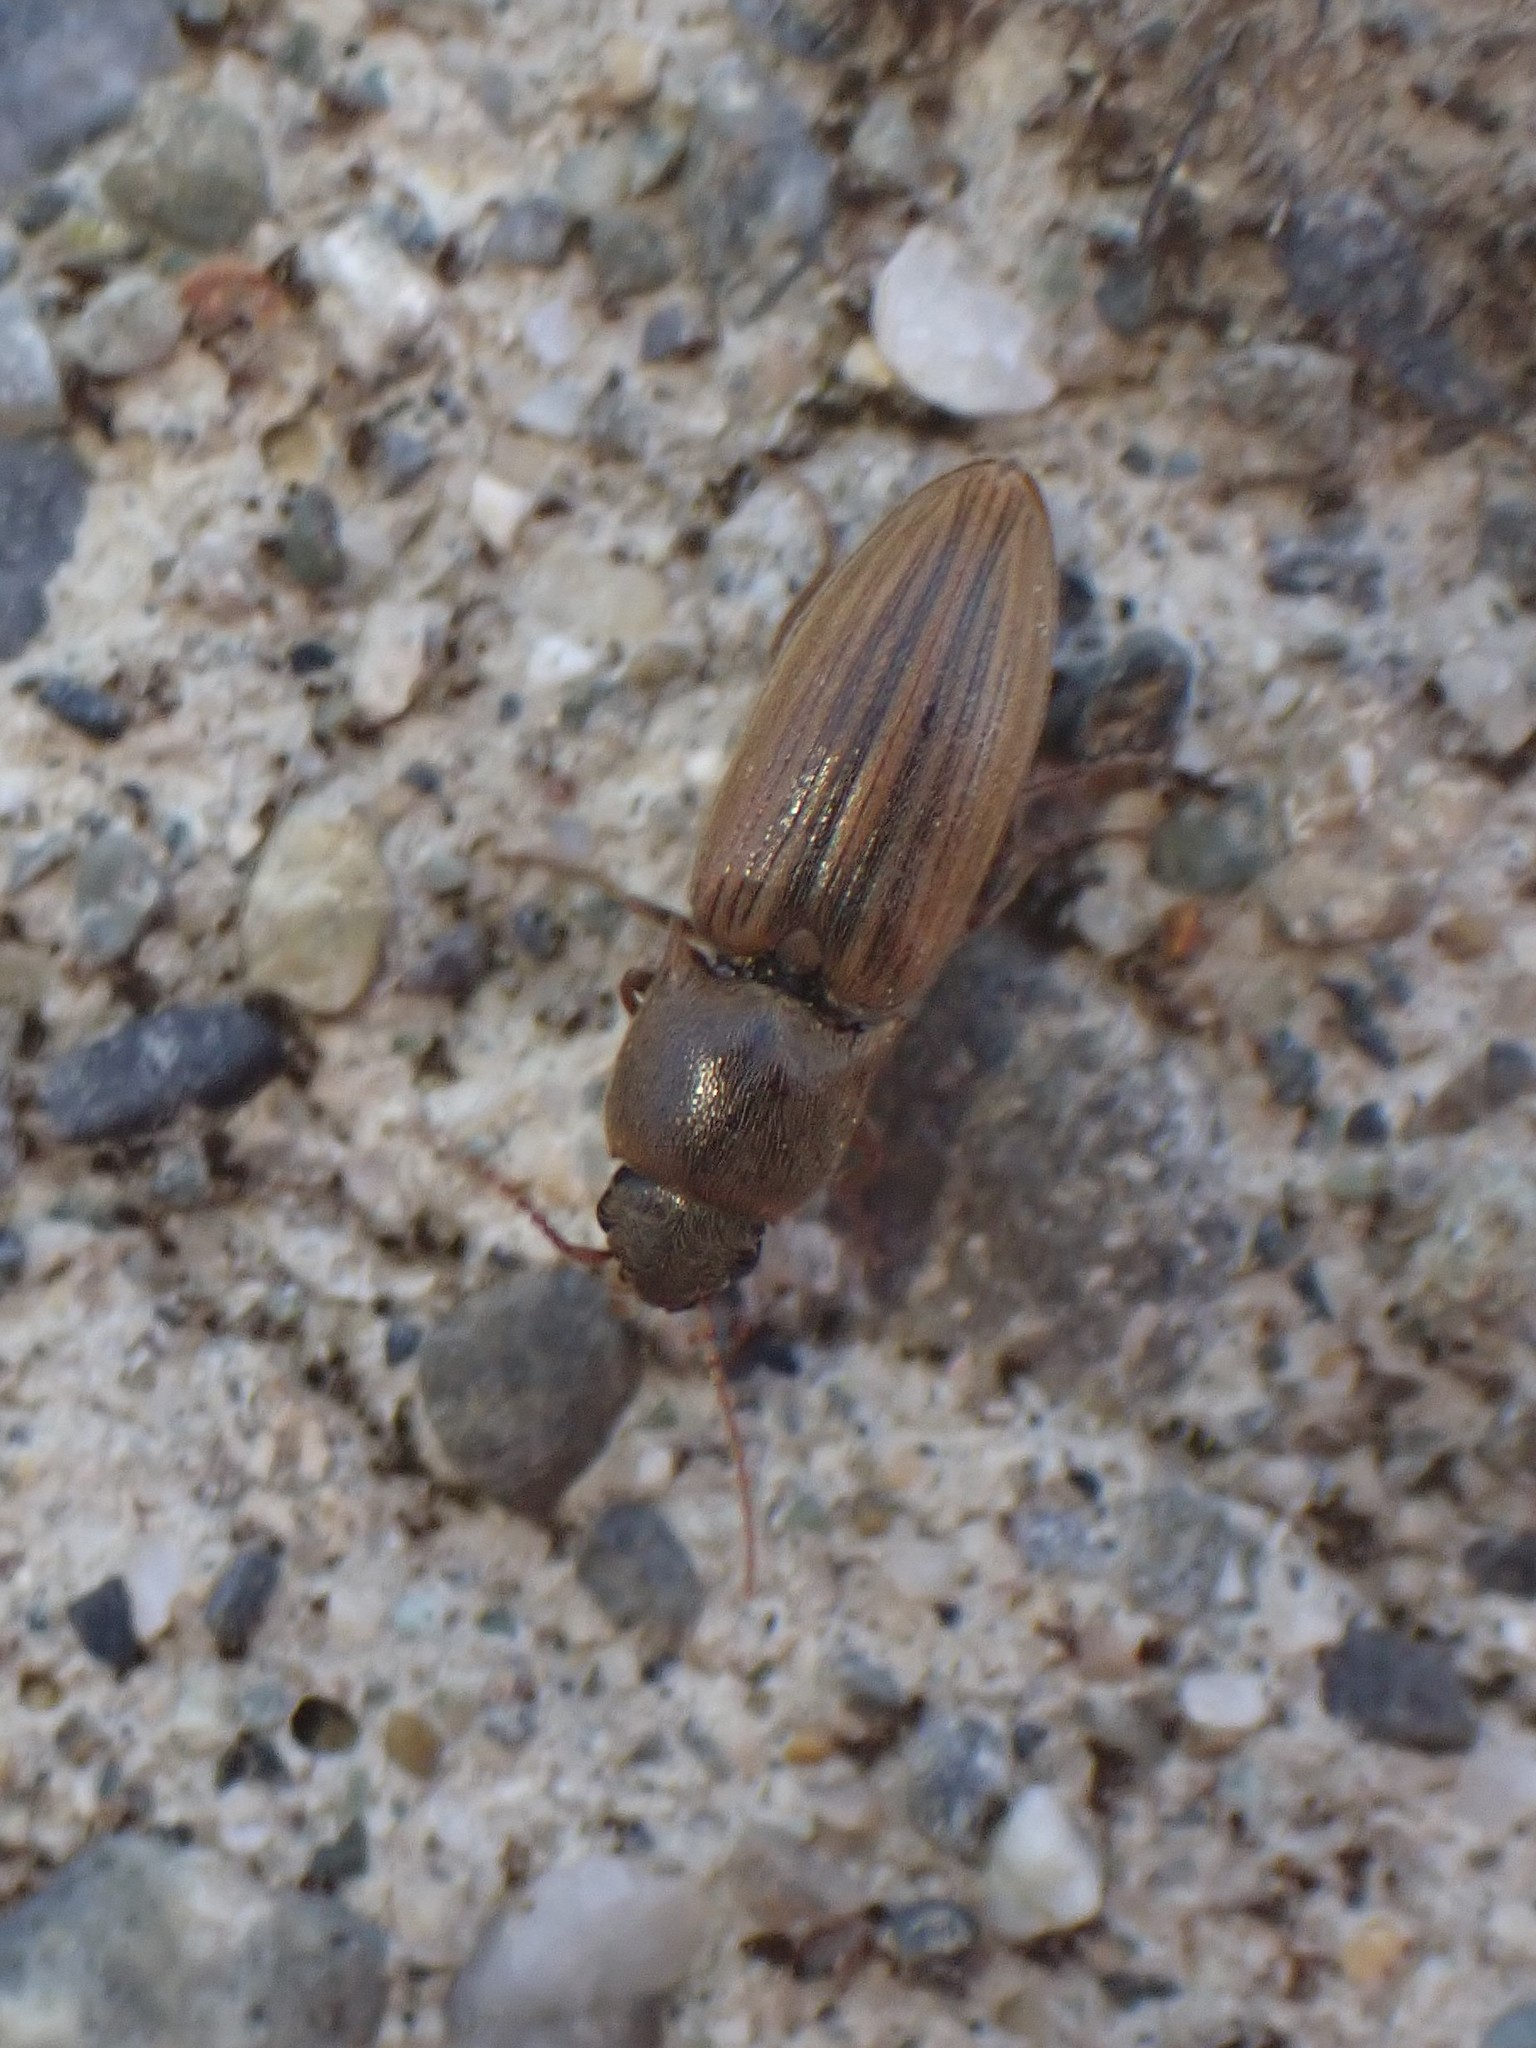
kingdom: Animalia
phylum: Arthropoda
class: Insecta
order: Coleoptera
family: Elateridae
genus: Agriotes
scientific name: Agriotes lineatus
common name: Lined click beetle
